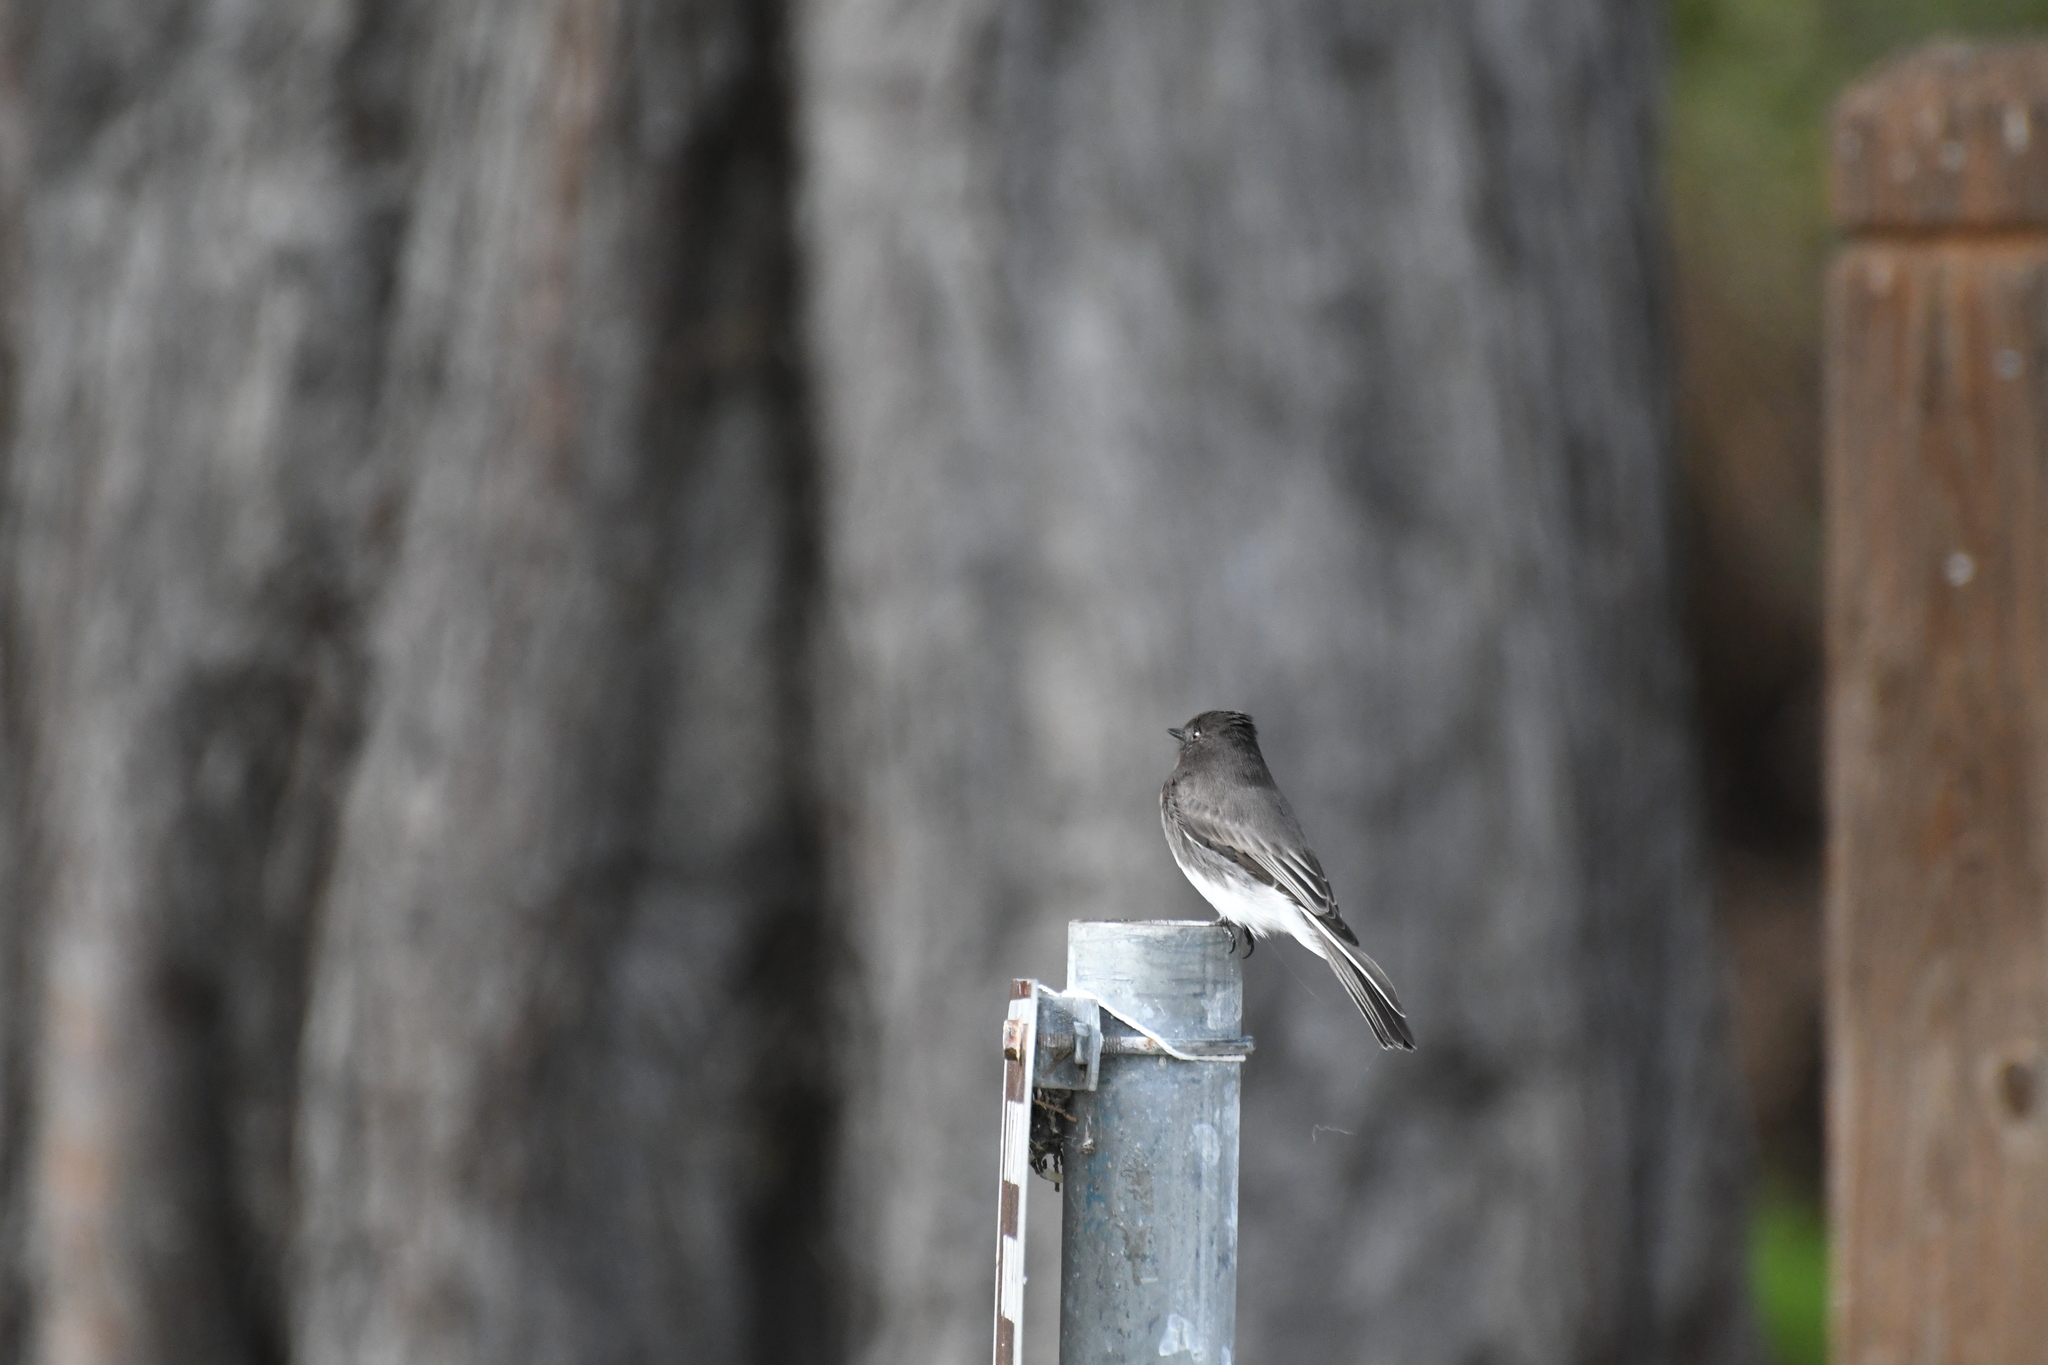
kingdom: Animalia
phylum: Chordata
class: Aves
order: Passeriformes
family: Tyrannidae
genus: Sayornis
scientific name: Sayornis nigricans
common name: Black phoebe
